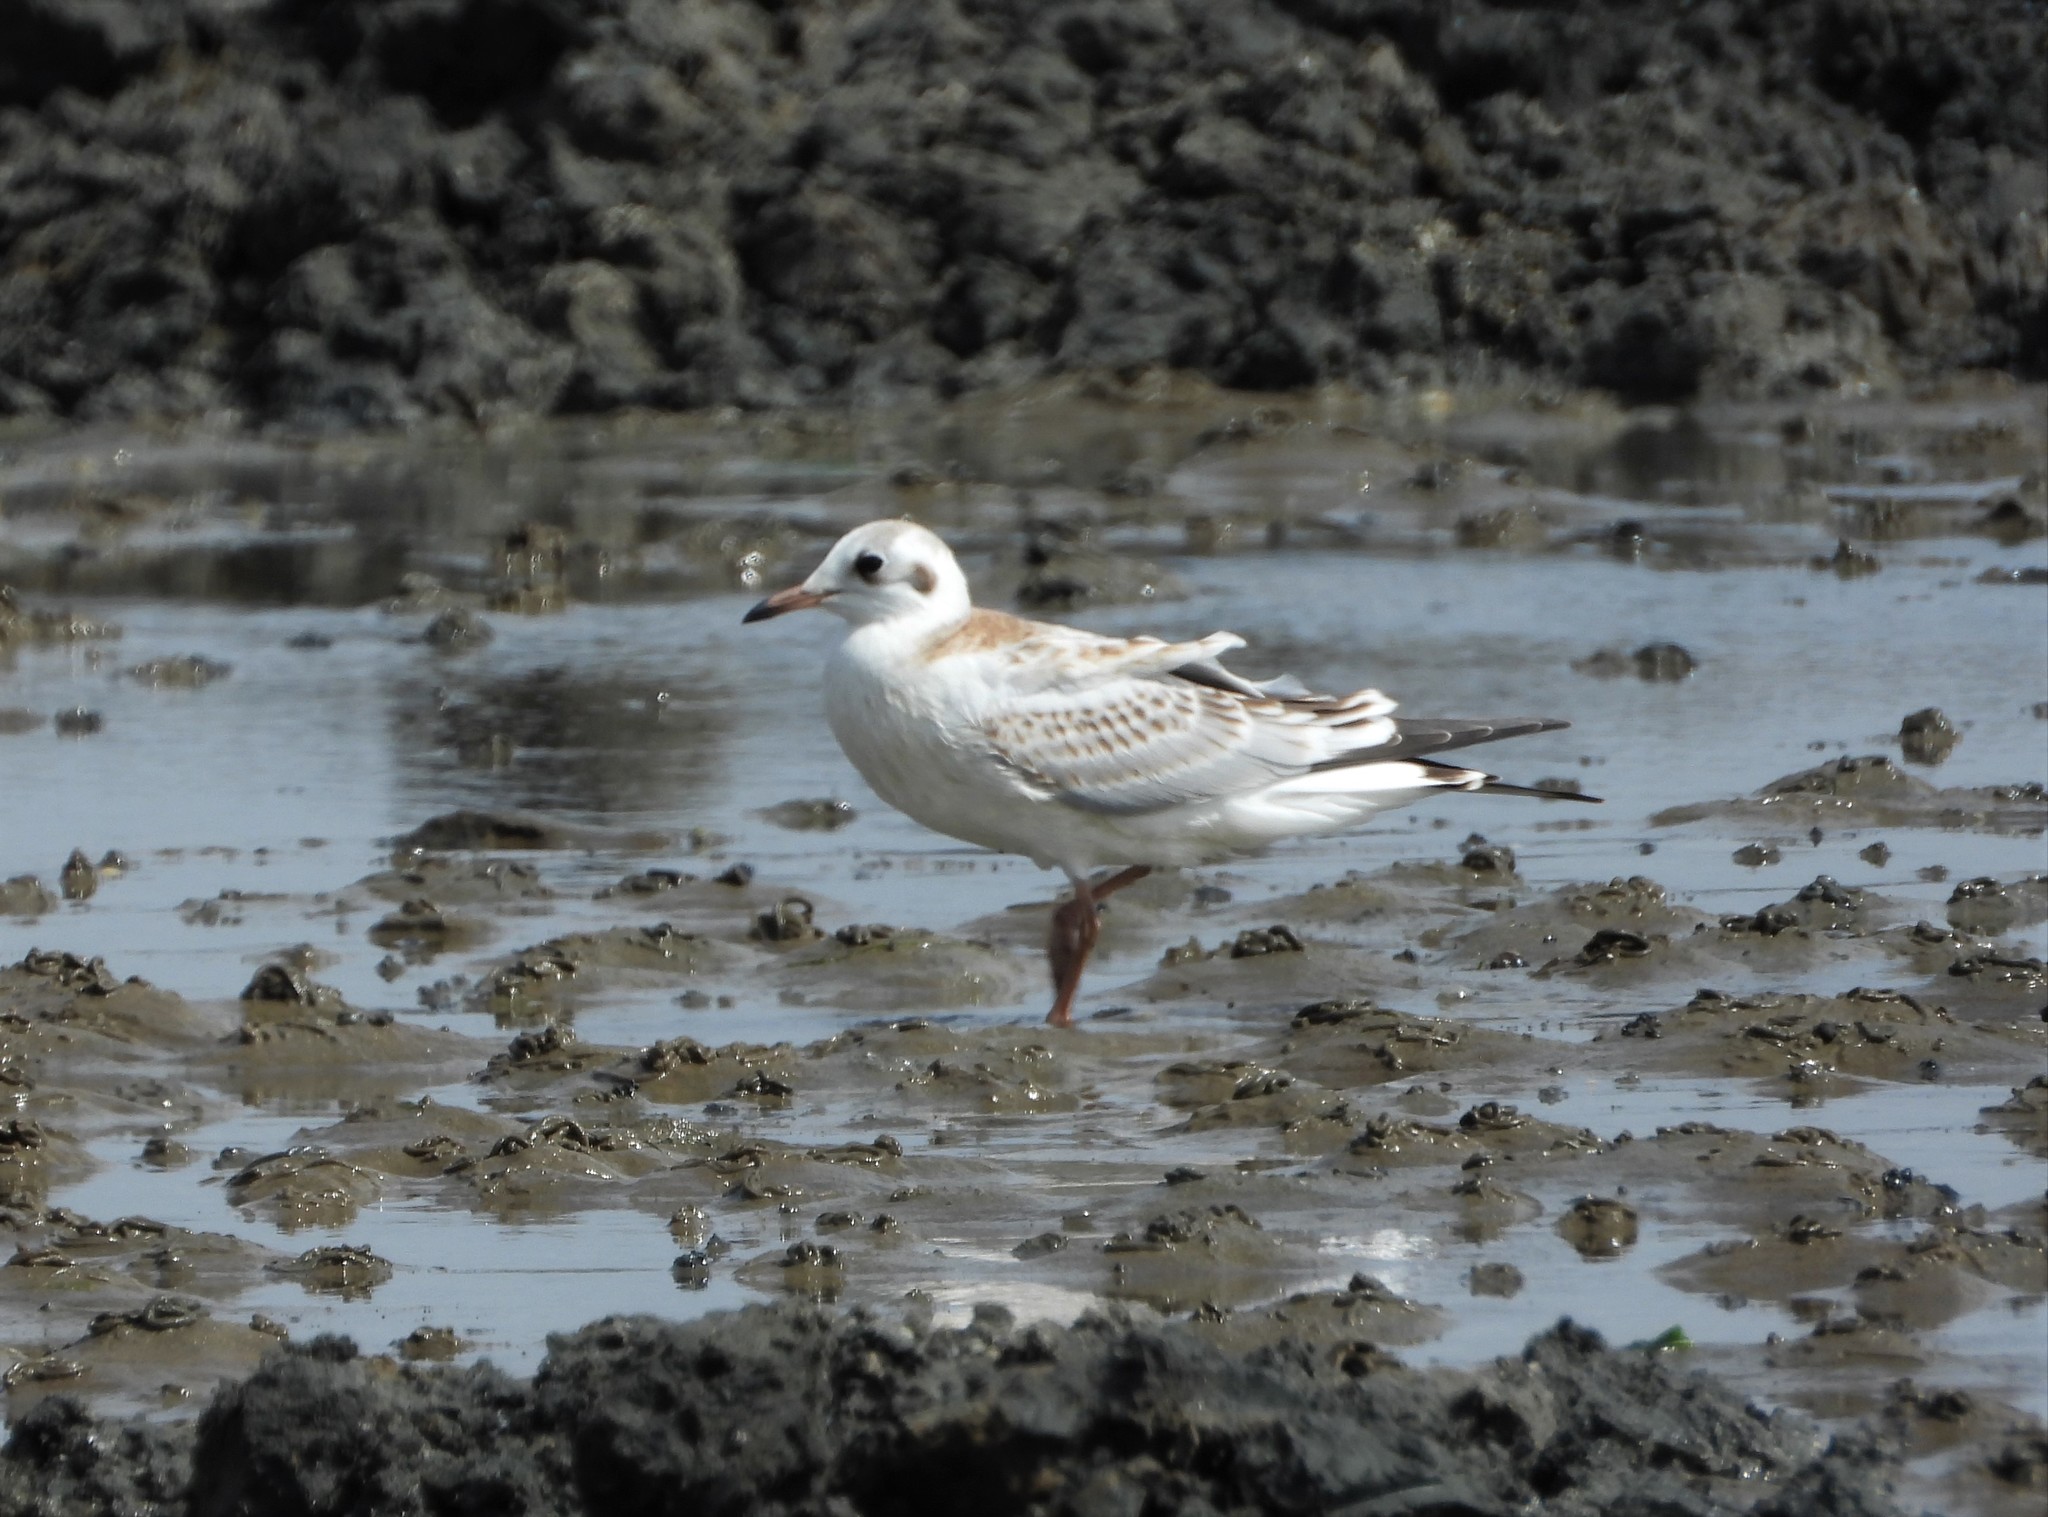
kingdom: Animalia
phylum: Chordata
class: Aves
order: Charadriiformes
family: Laridae
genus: Chroicocephalus
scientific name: Chroicocephalus ridibundus
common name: Black-headed gull
